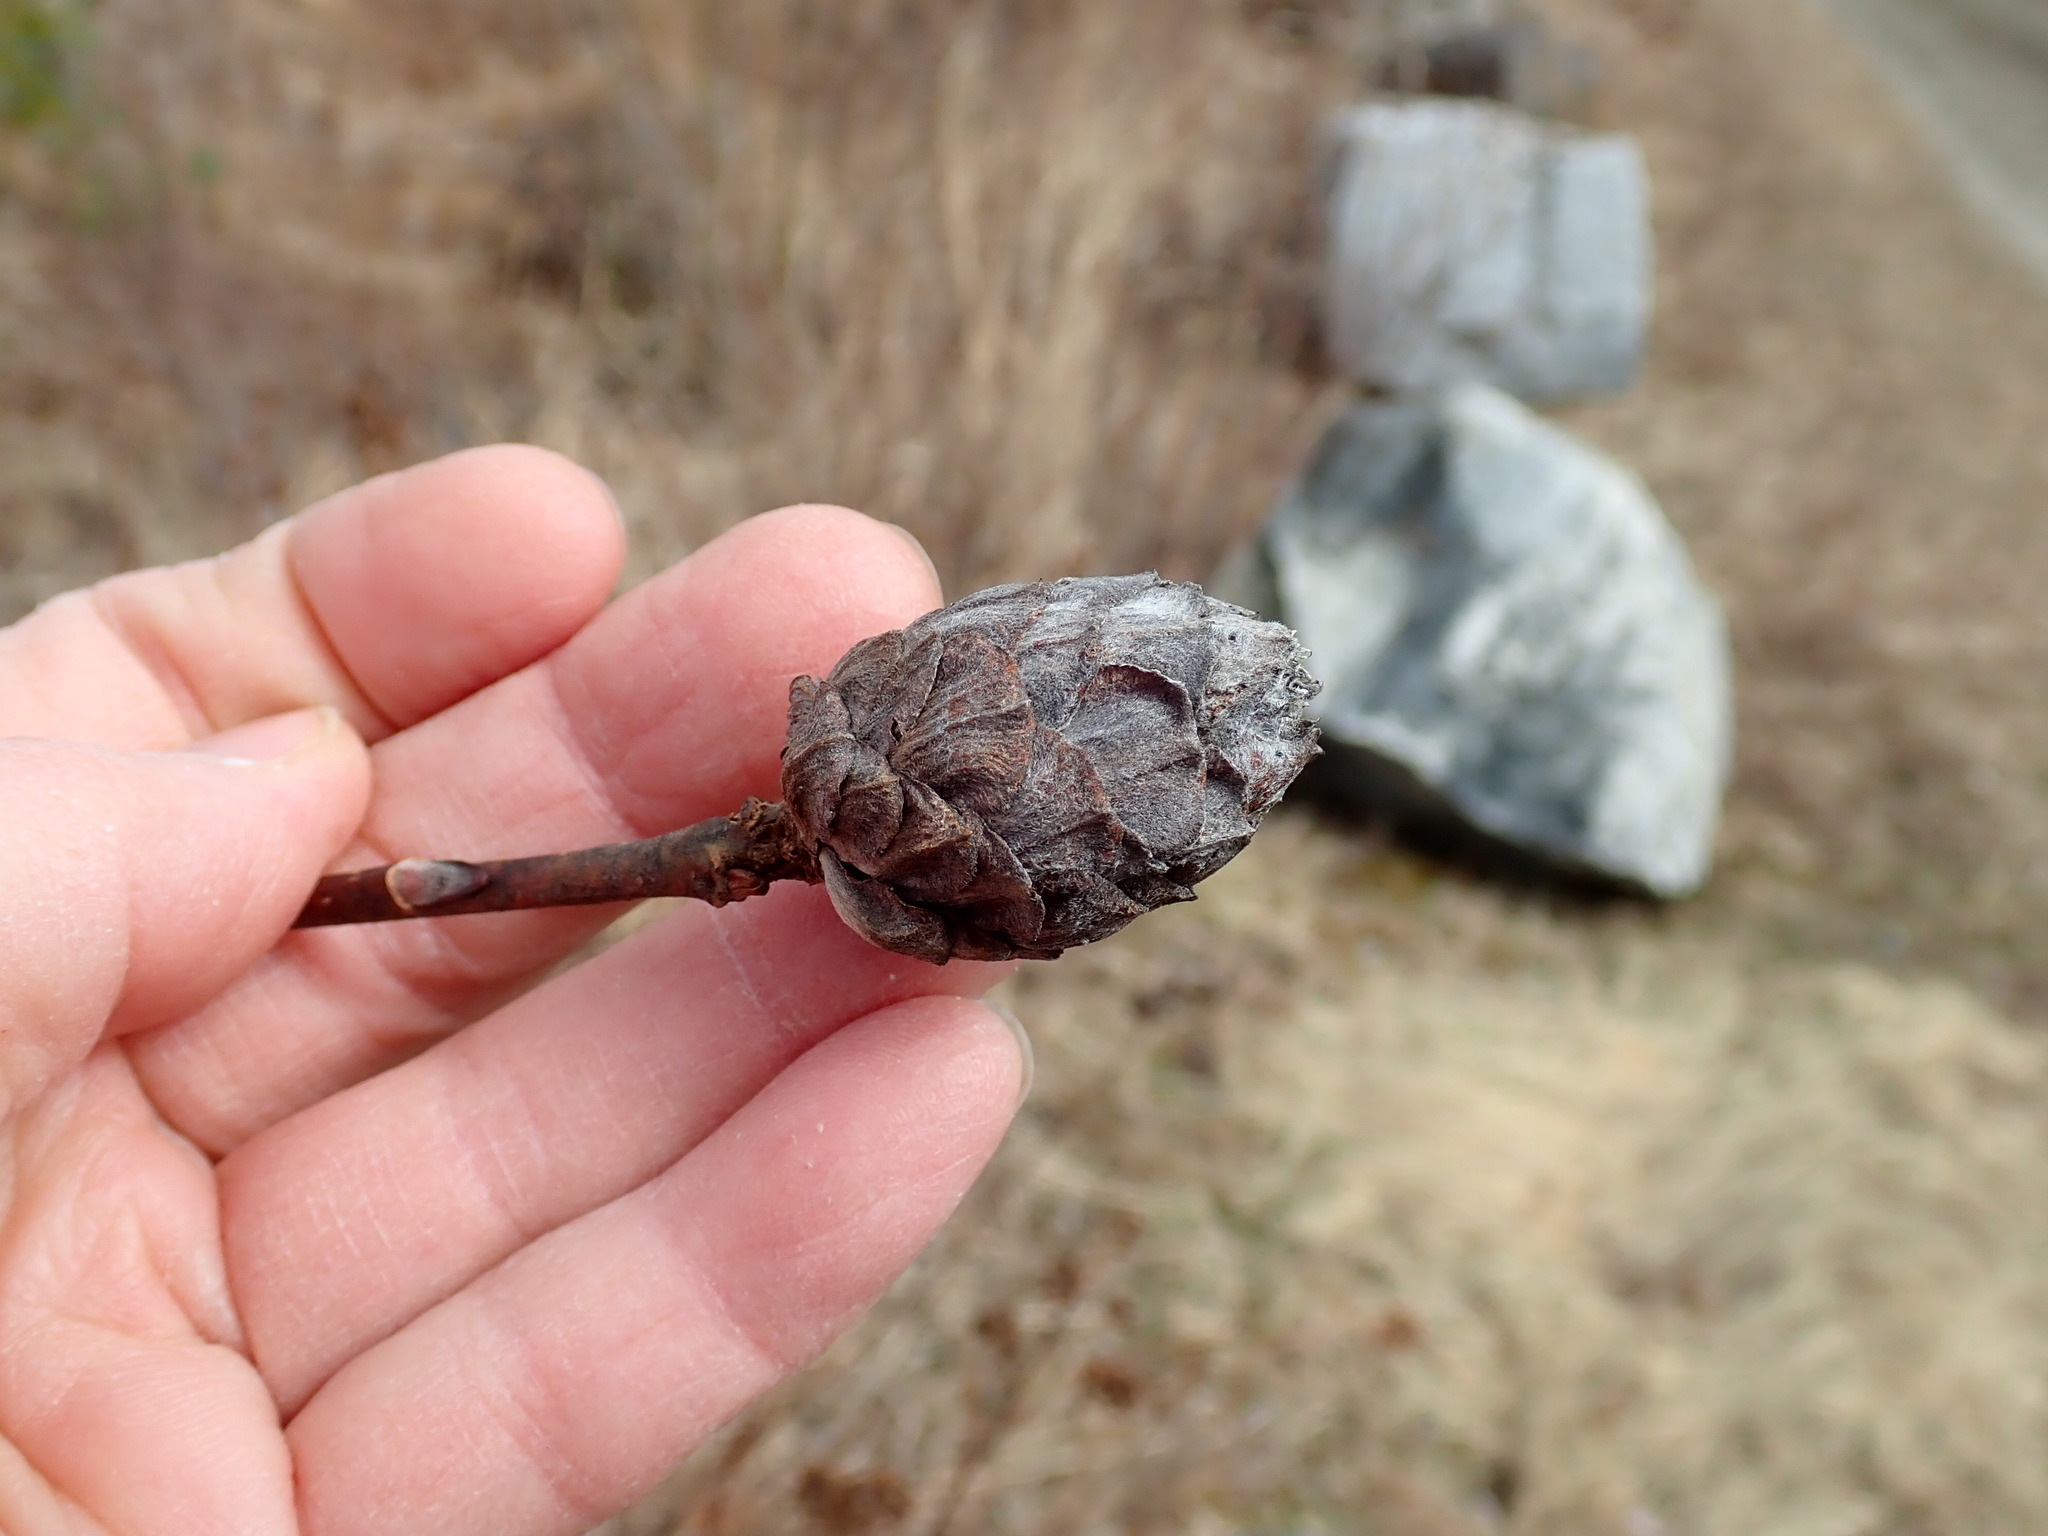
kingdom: Animalia
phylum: Arthropoda
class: Insecta
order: Diptera
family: Cecidomyiidae
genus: Rabdophaga
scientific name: Rabdophaga strobiloides
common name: Willow pinecone gall midge
